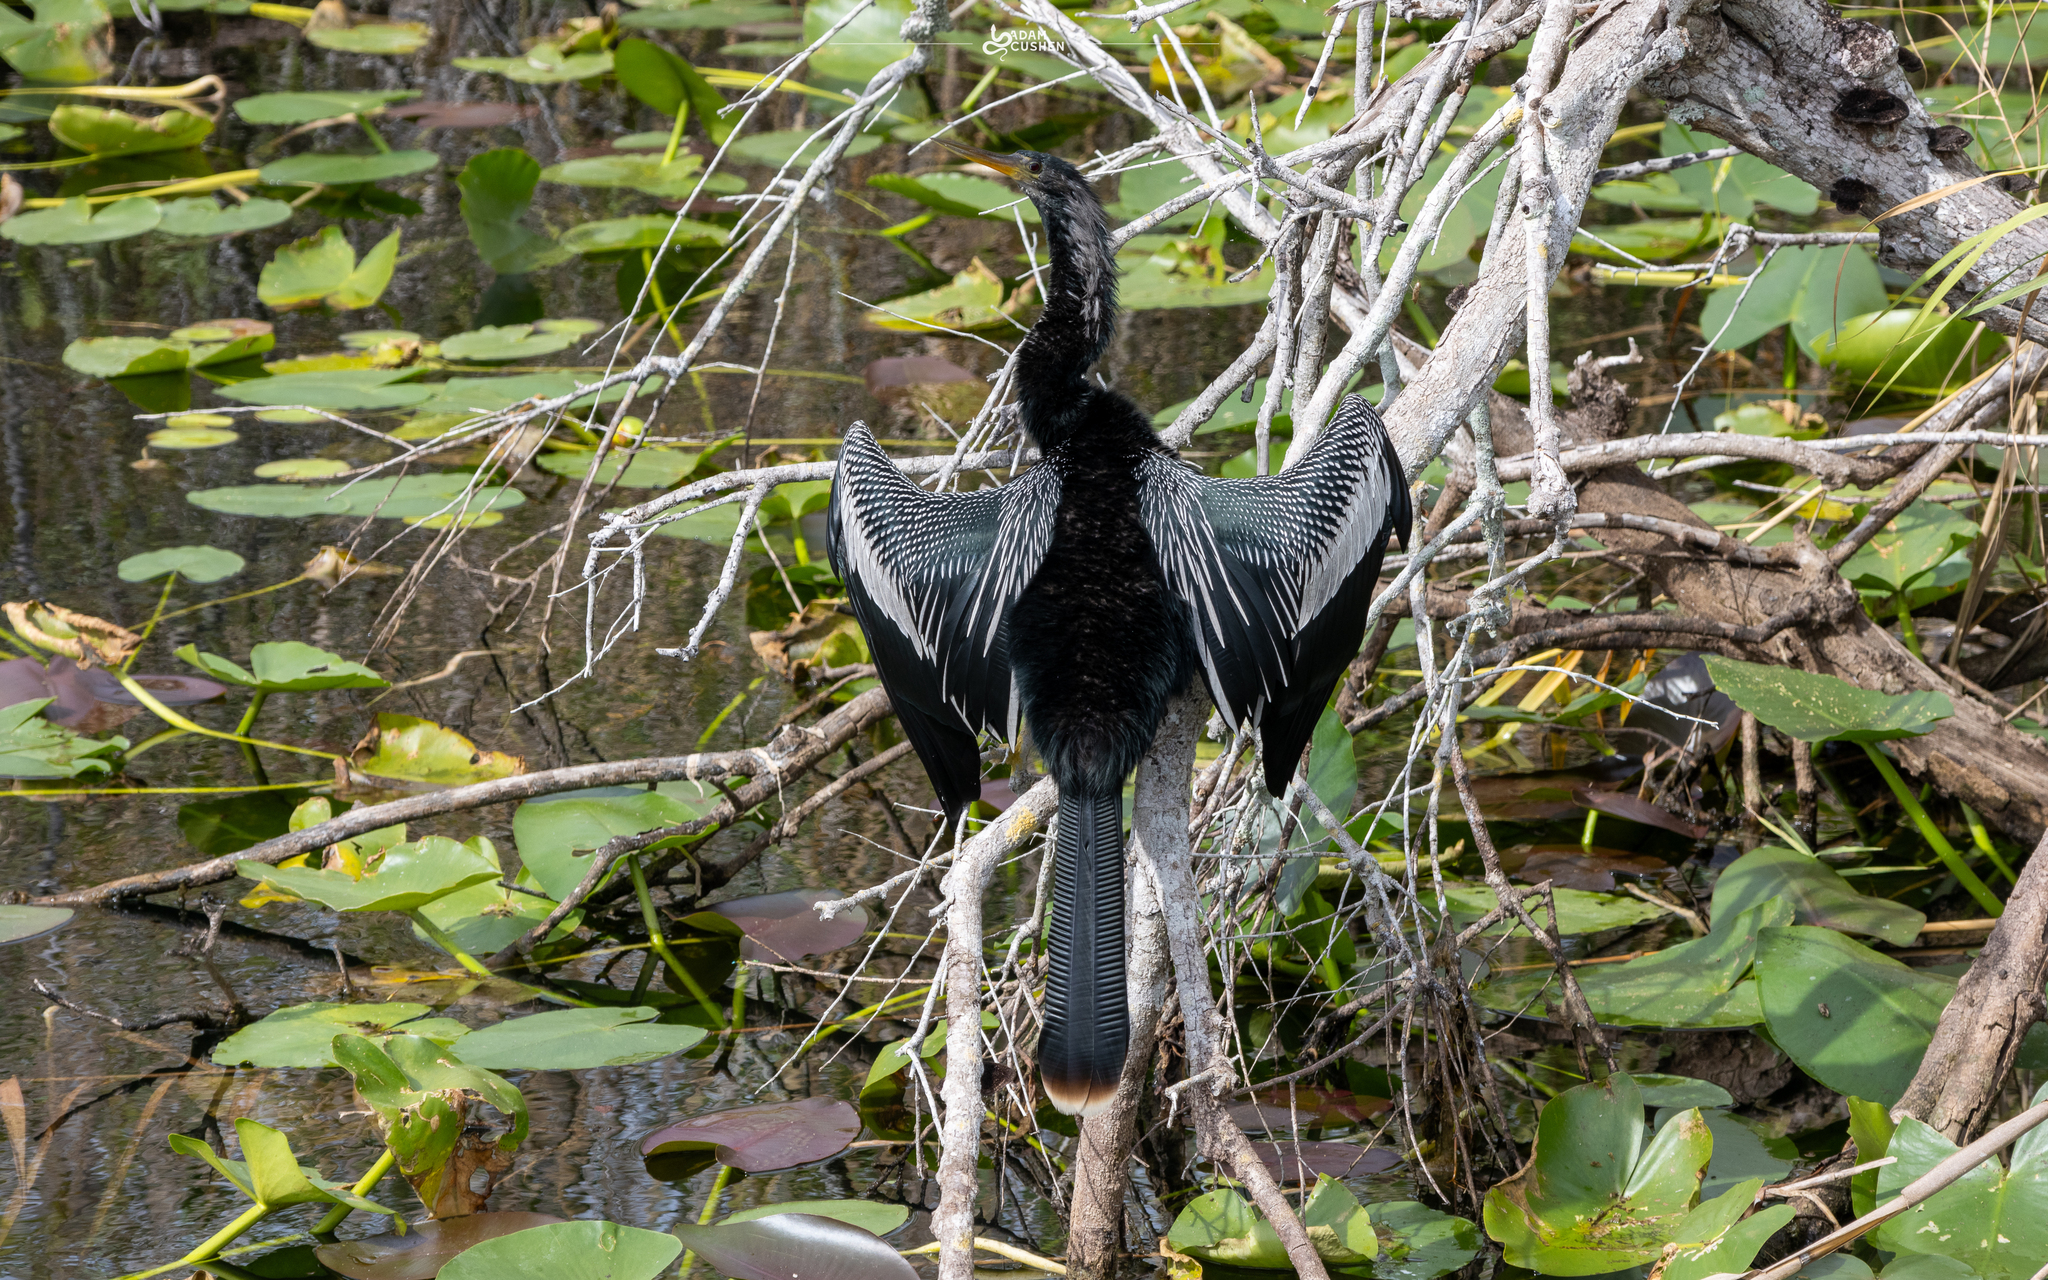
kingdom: Animalia
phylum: Chordata
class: Aves
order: Suliformes
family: Anhingidae
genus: Anhinga
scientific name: Anhinga anhinga
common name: Anhinga
